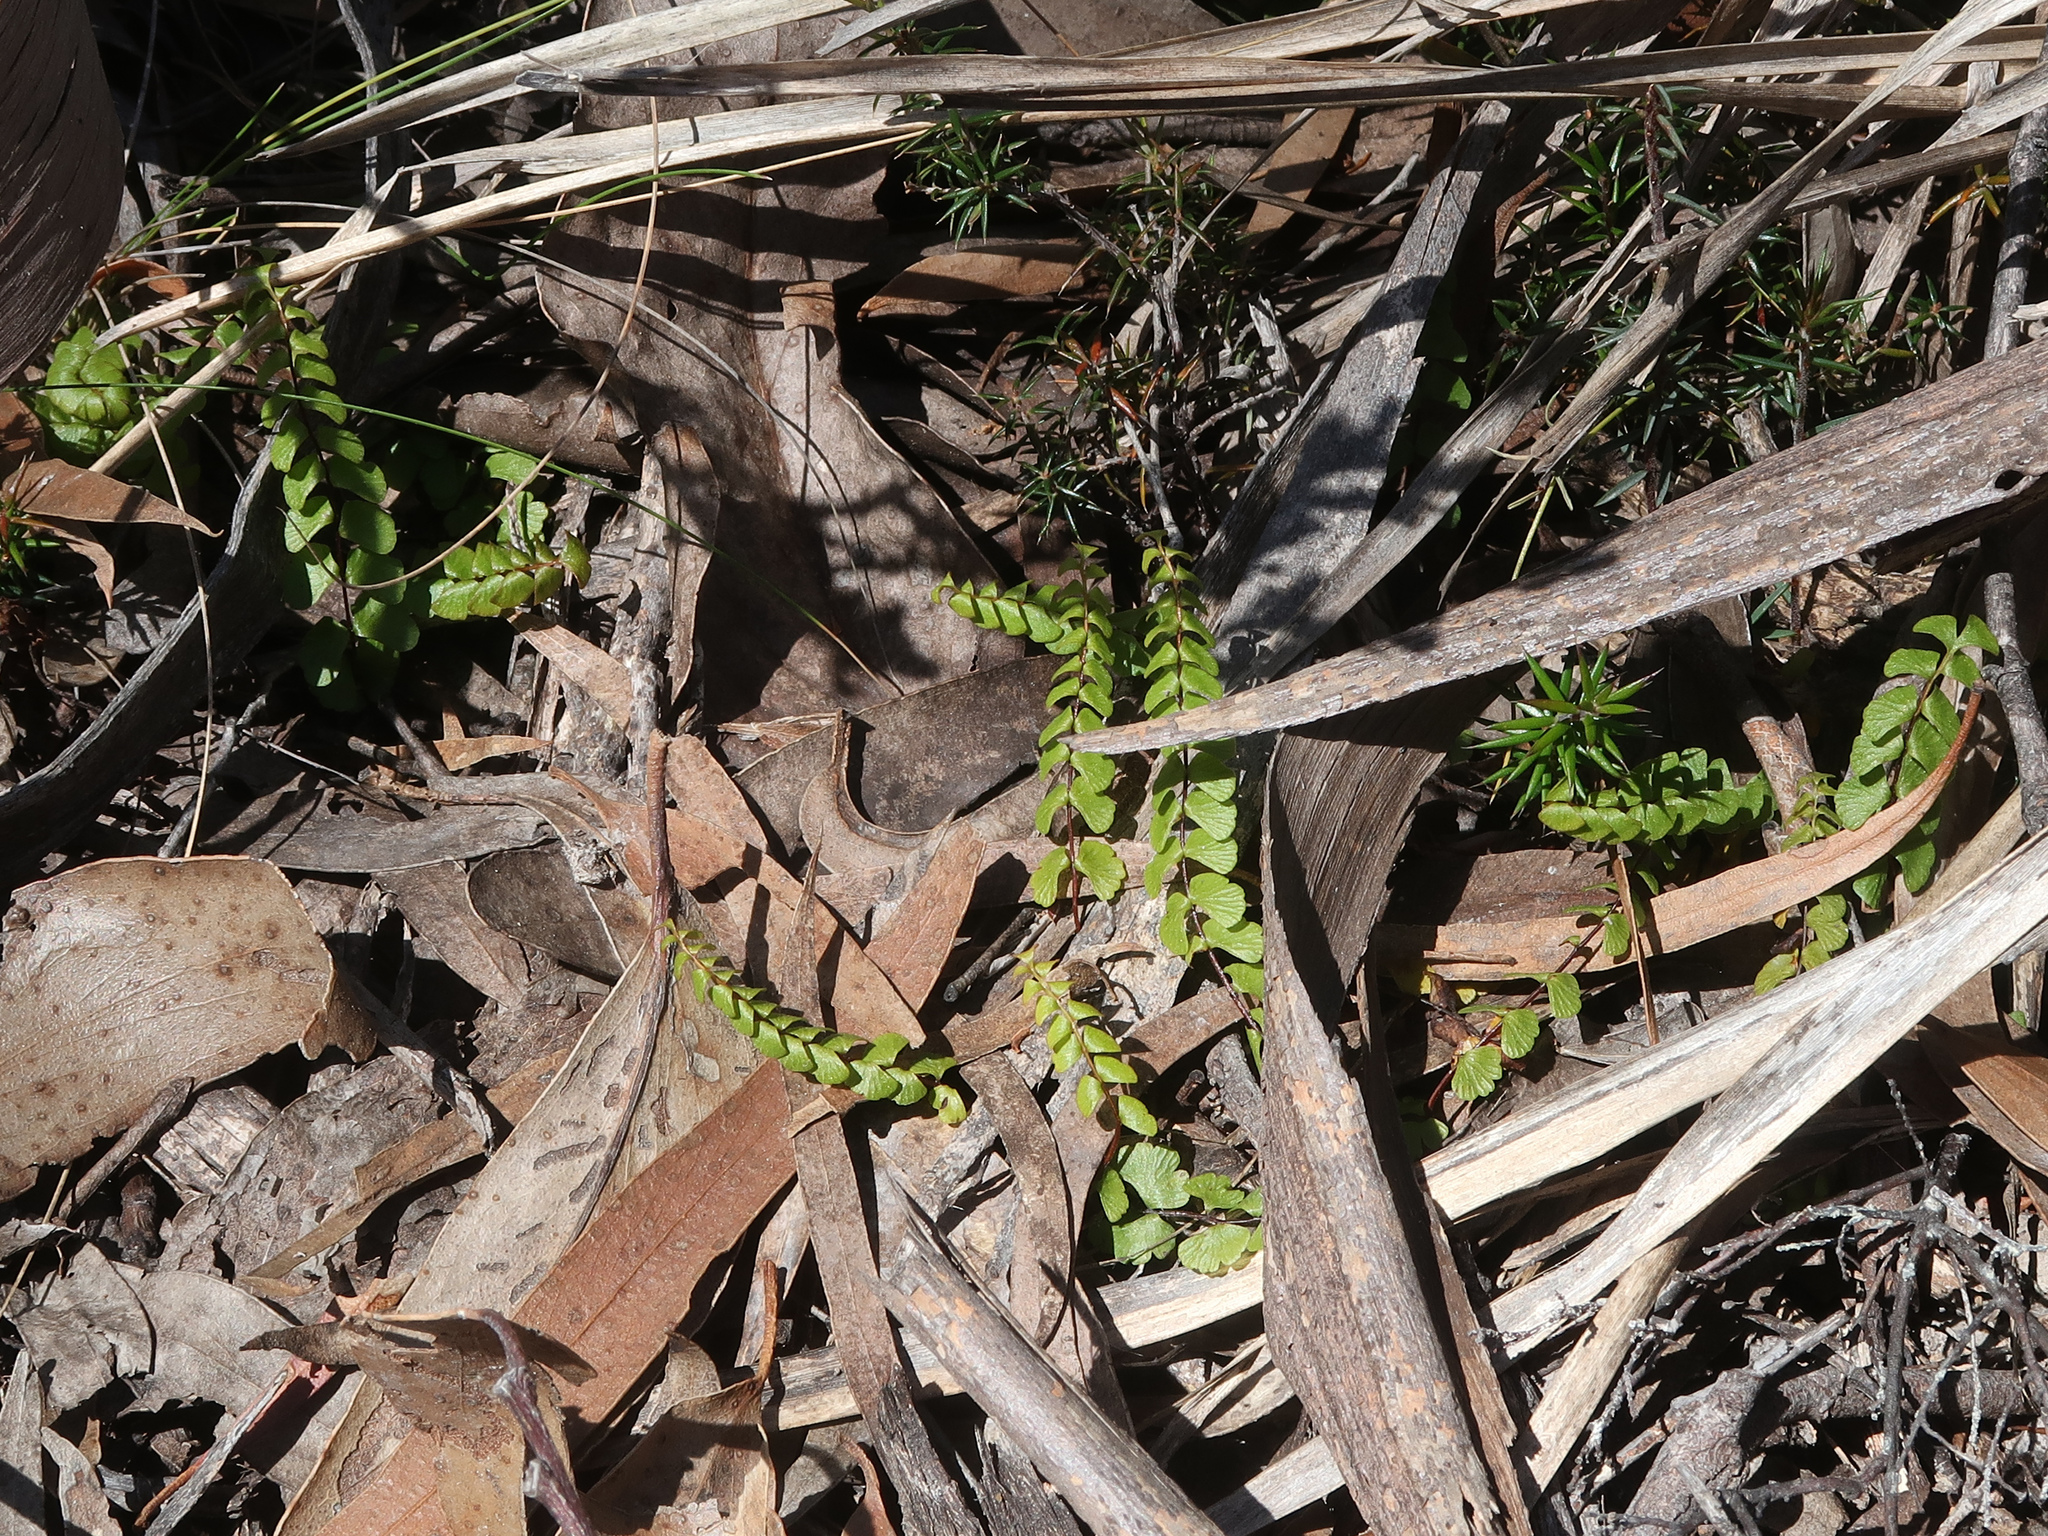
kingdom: Plantae
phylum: Tracheophyta
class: Polypodiopsida
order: Polypodiales
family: Lindsaeaceae
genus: Lindsaea
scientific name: Lindsaea linearis
